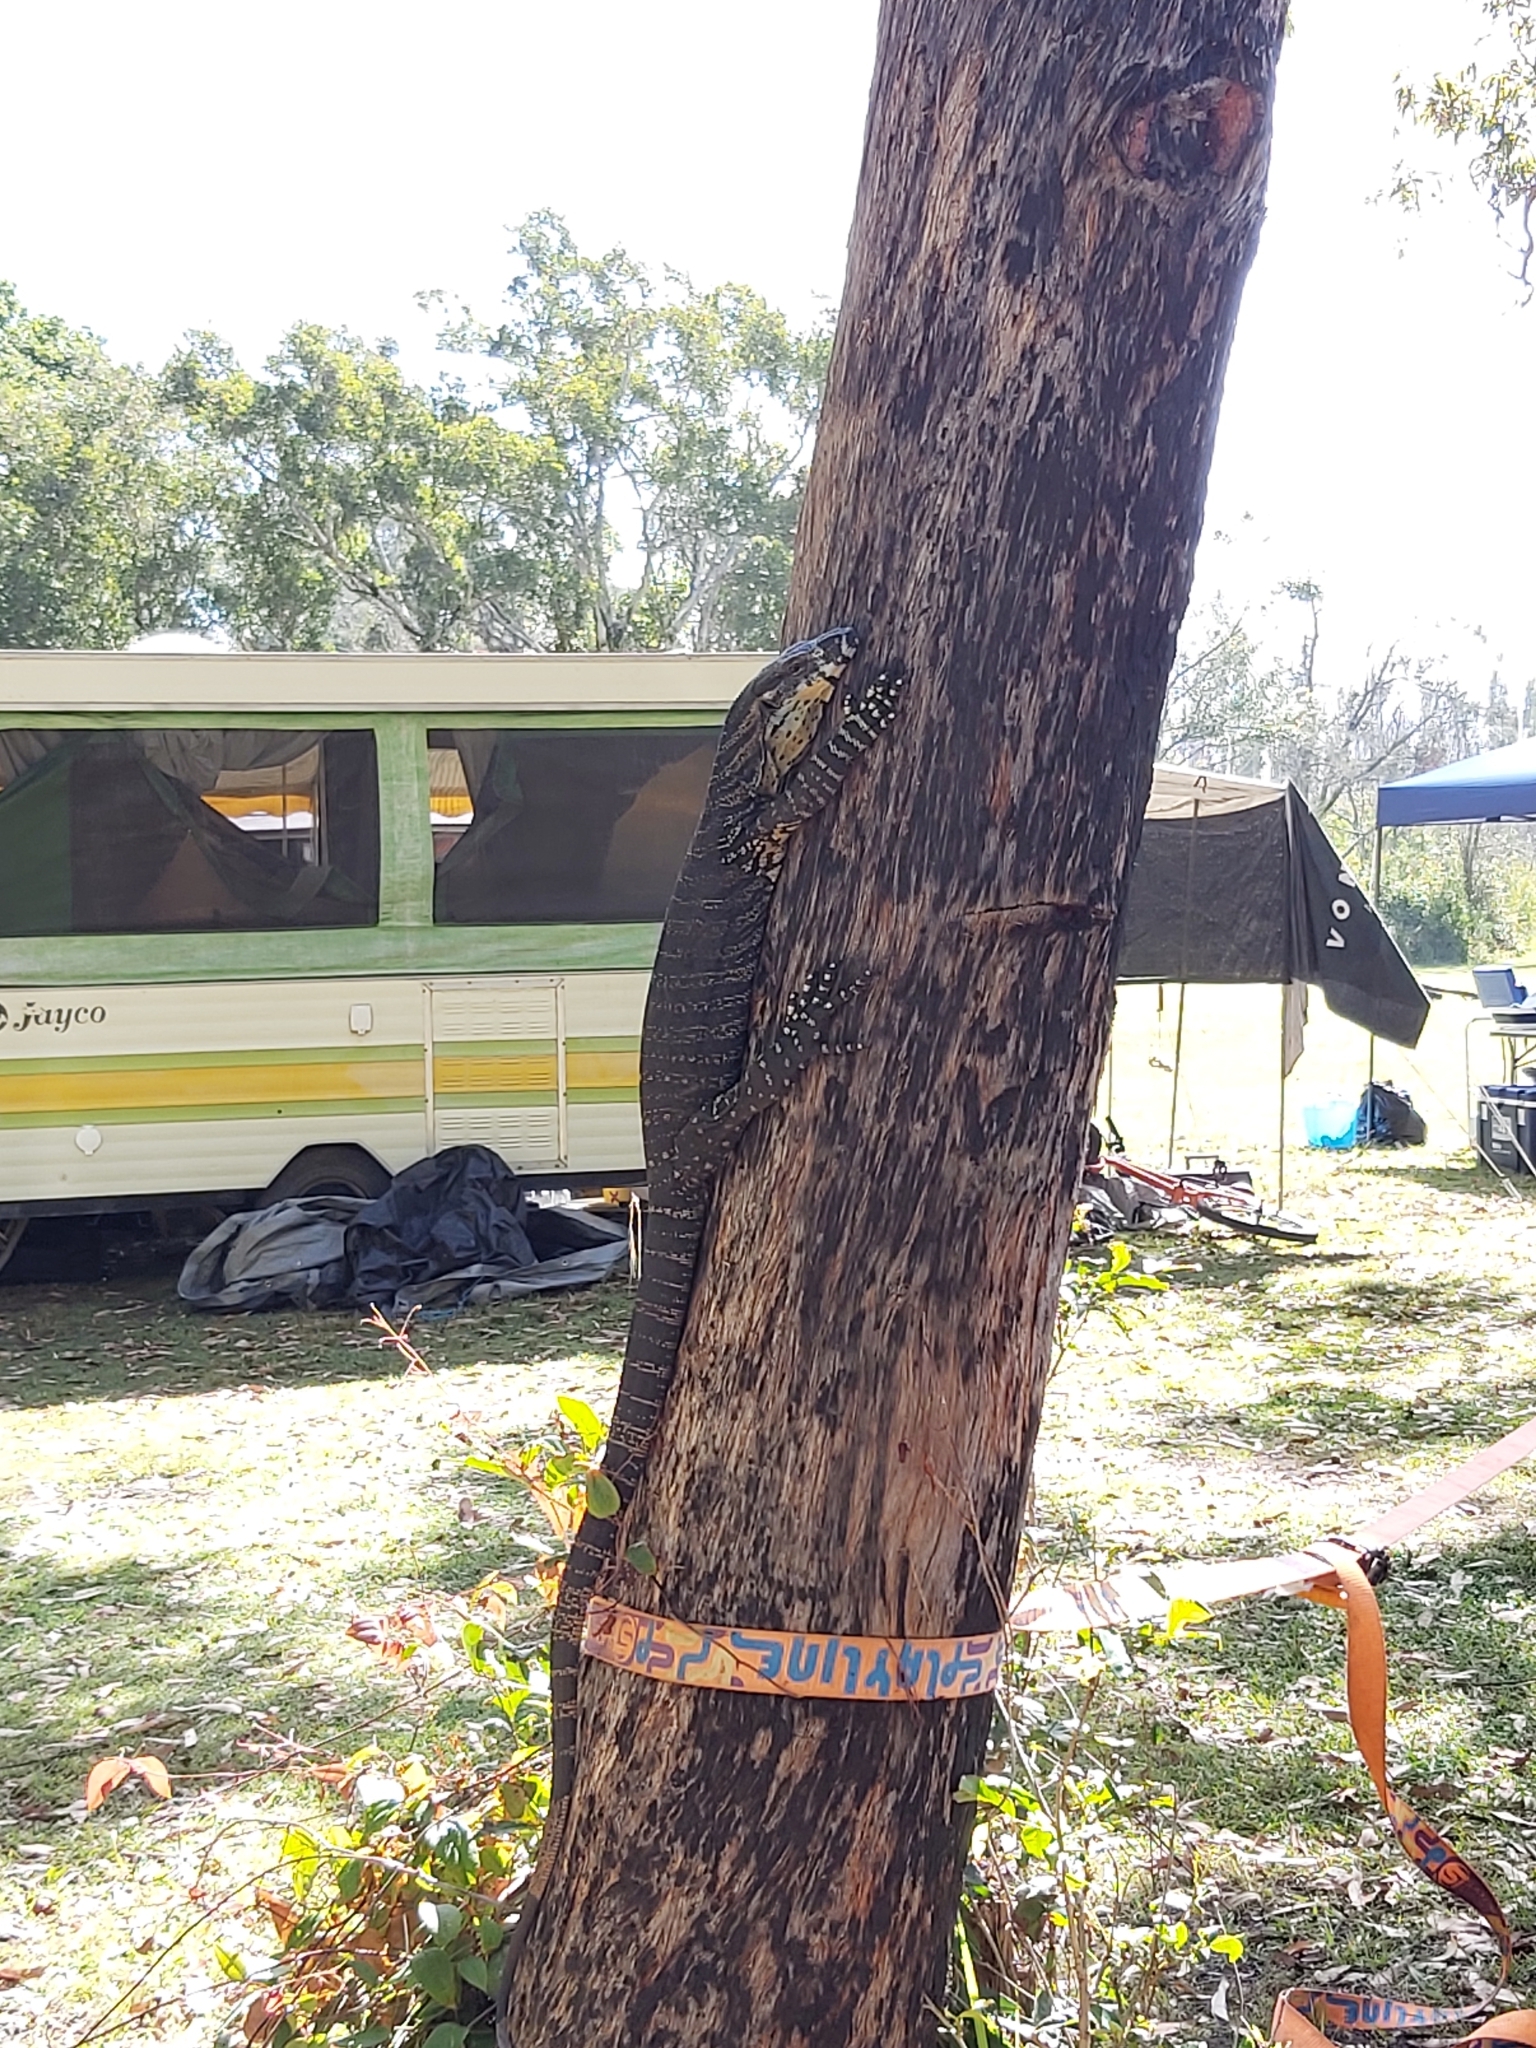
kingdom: Animalia
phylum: Chordata
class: Squamata
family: Varanidae
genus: Varanus
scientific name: Varanus varius
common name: Lace monitor
